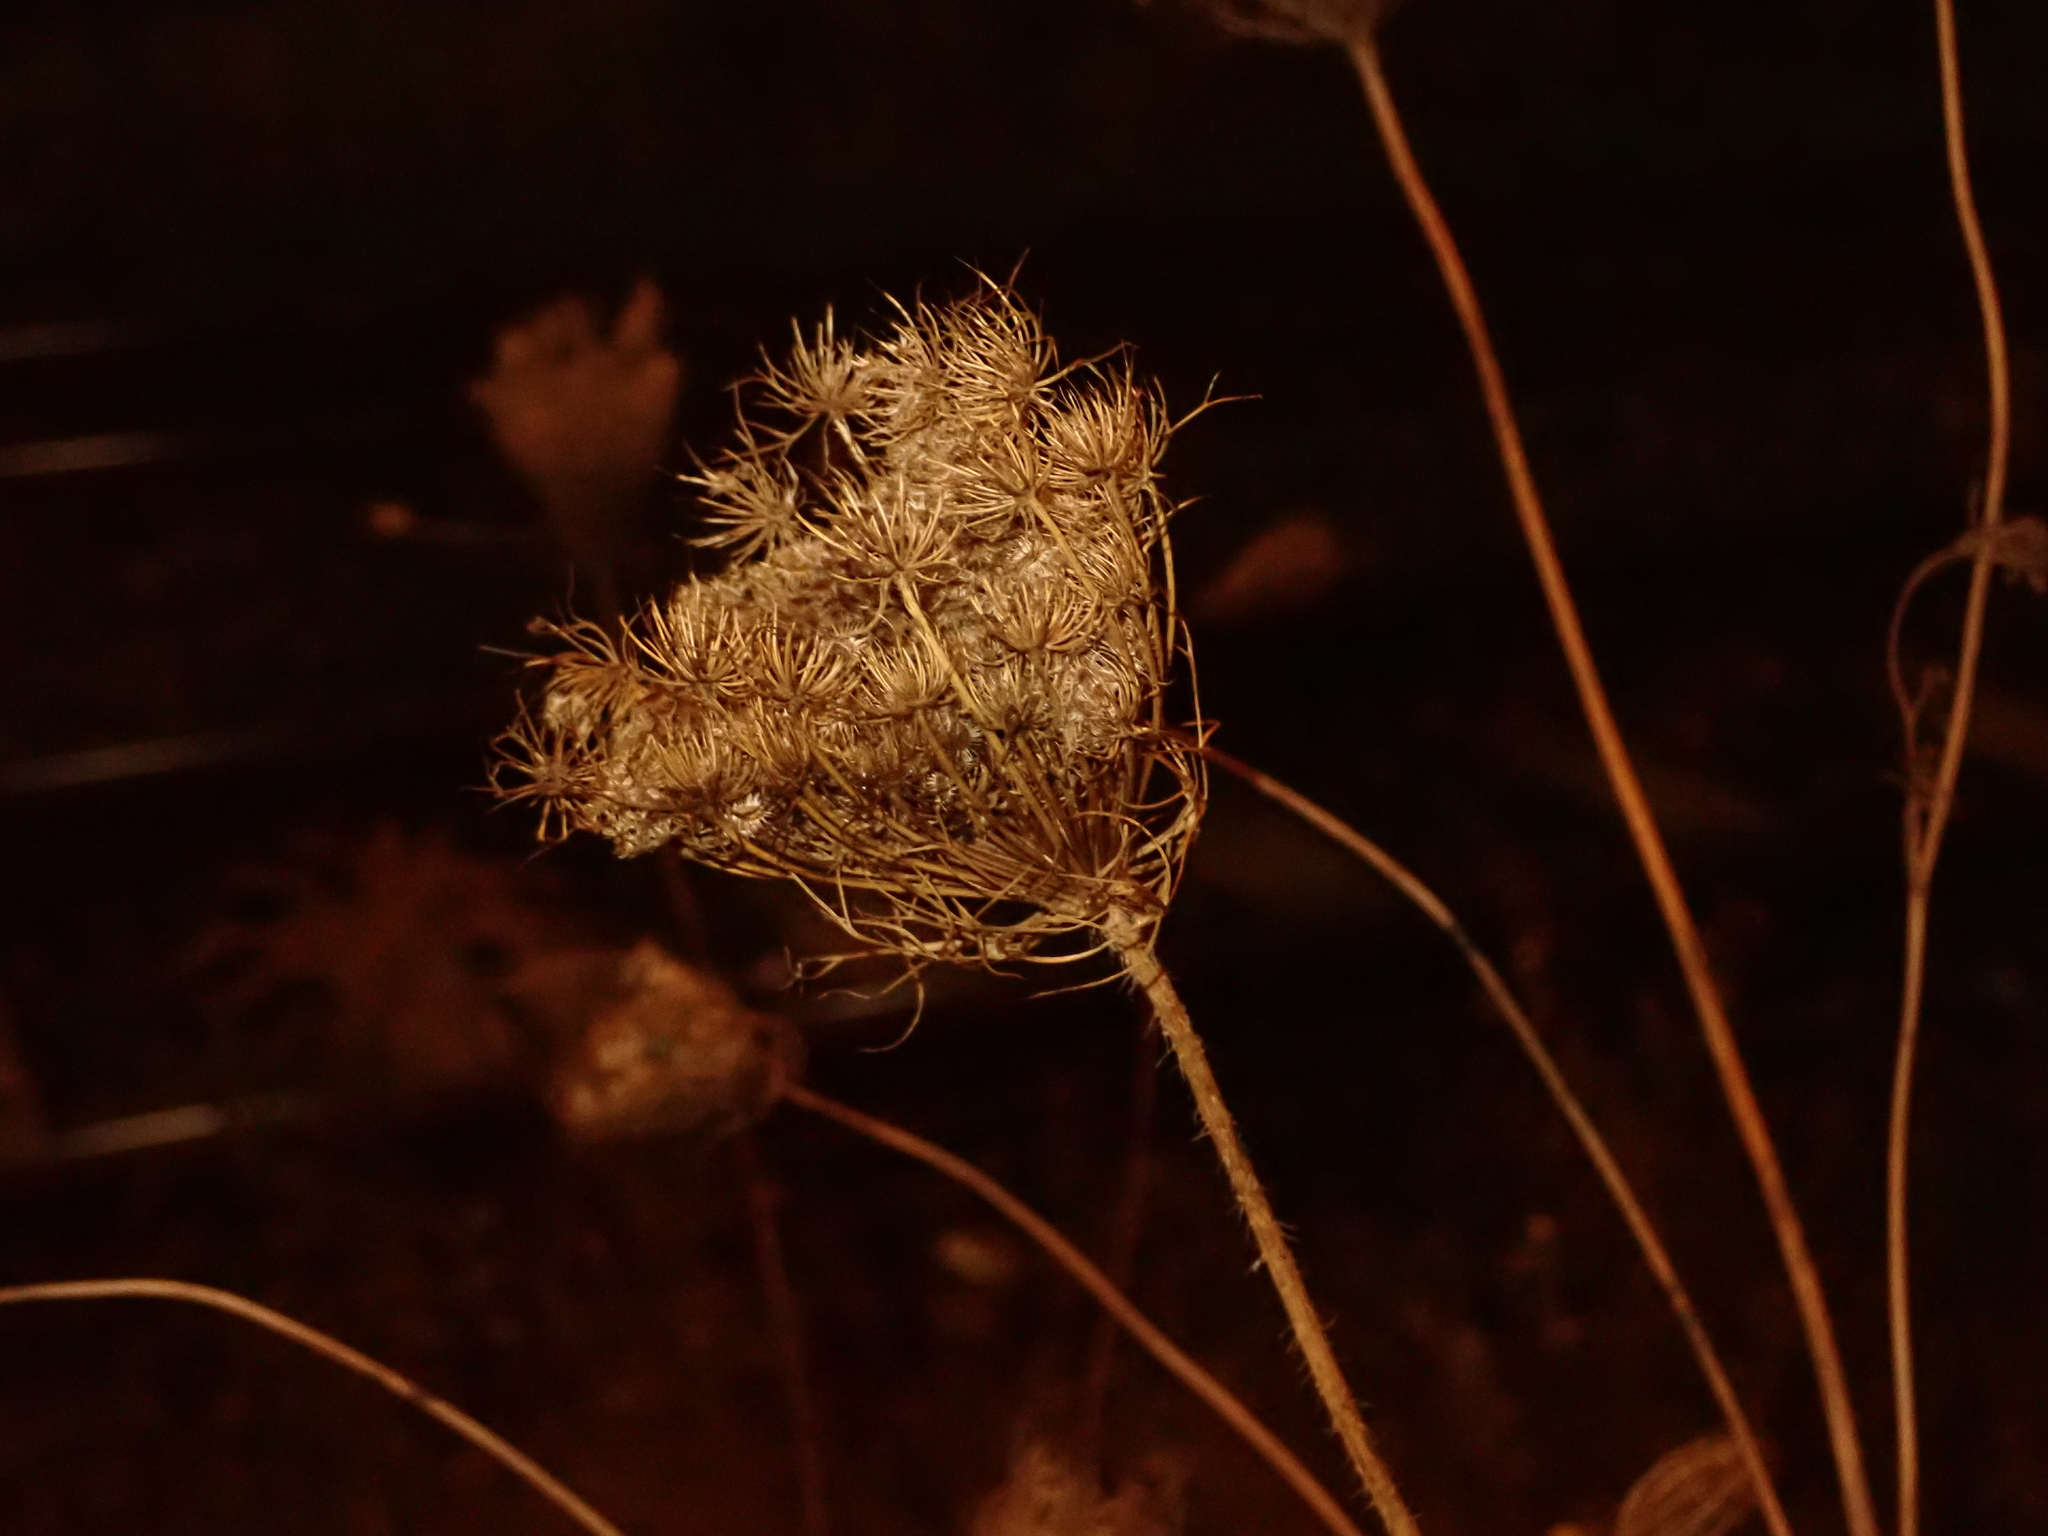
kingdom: Plantae
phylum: Tracheophyta
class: Magnoliopsida
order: Apiales
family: Apiaceae
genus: Daucus
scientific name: Daucus carota
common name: Wild carrot
